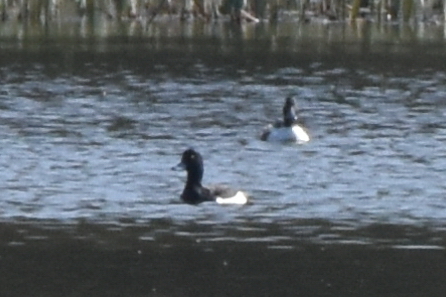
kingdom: Animalia
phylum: Chordata
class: Aves
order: Anseriformes
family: Anatidae
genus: Aythya
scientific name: Aythya fuligula
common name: Tufted duck
